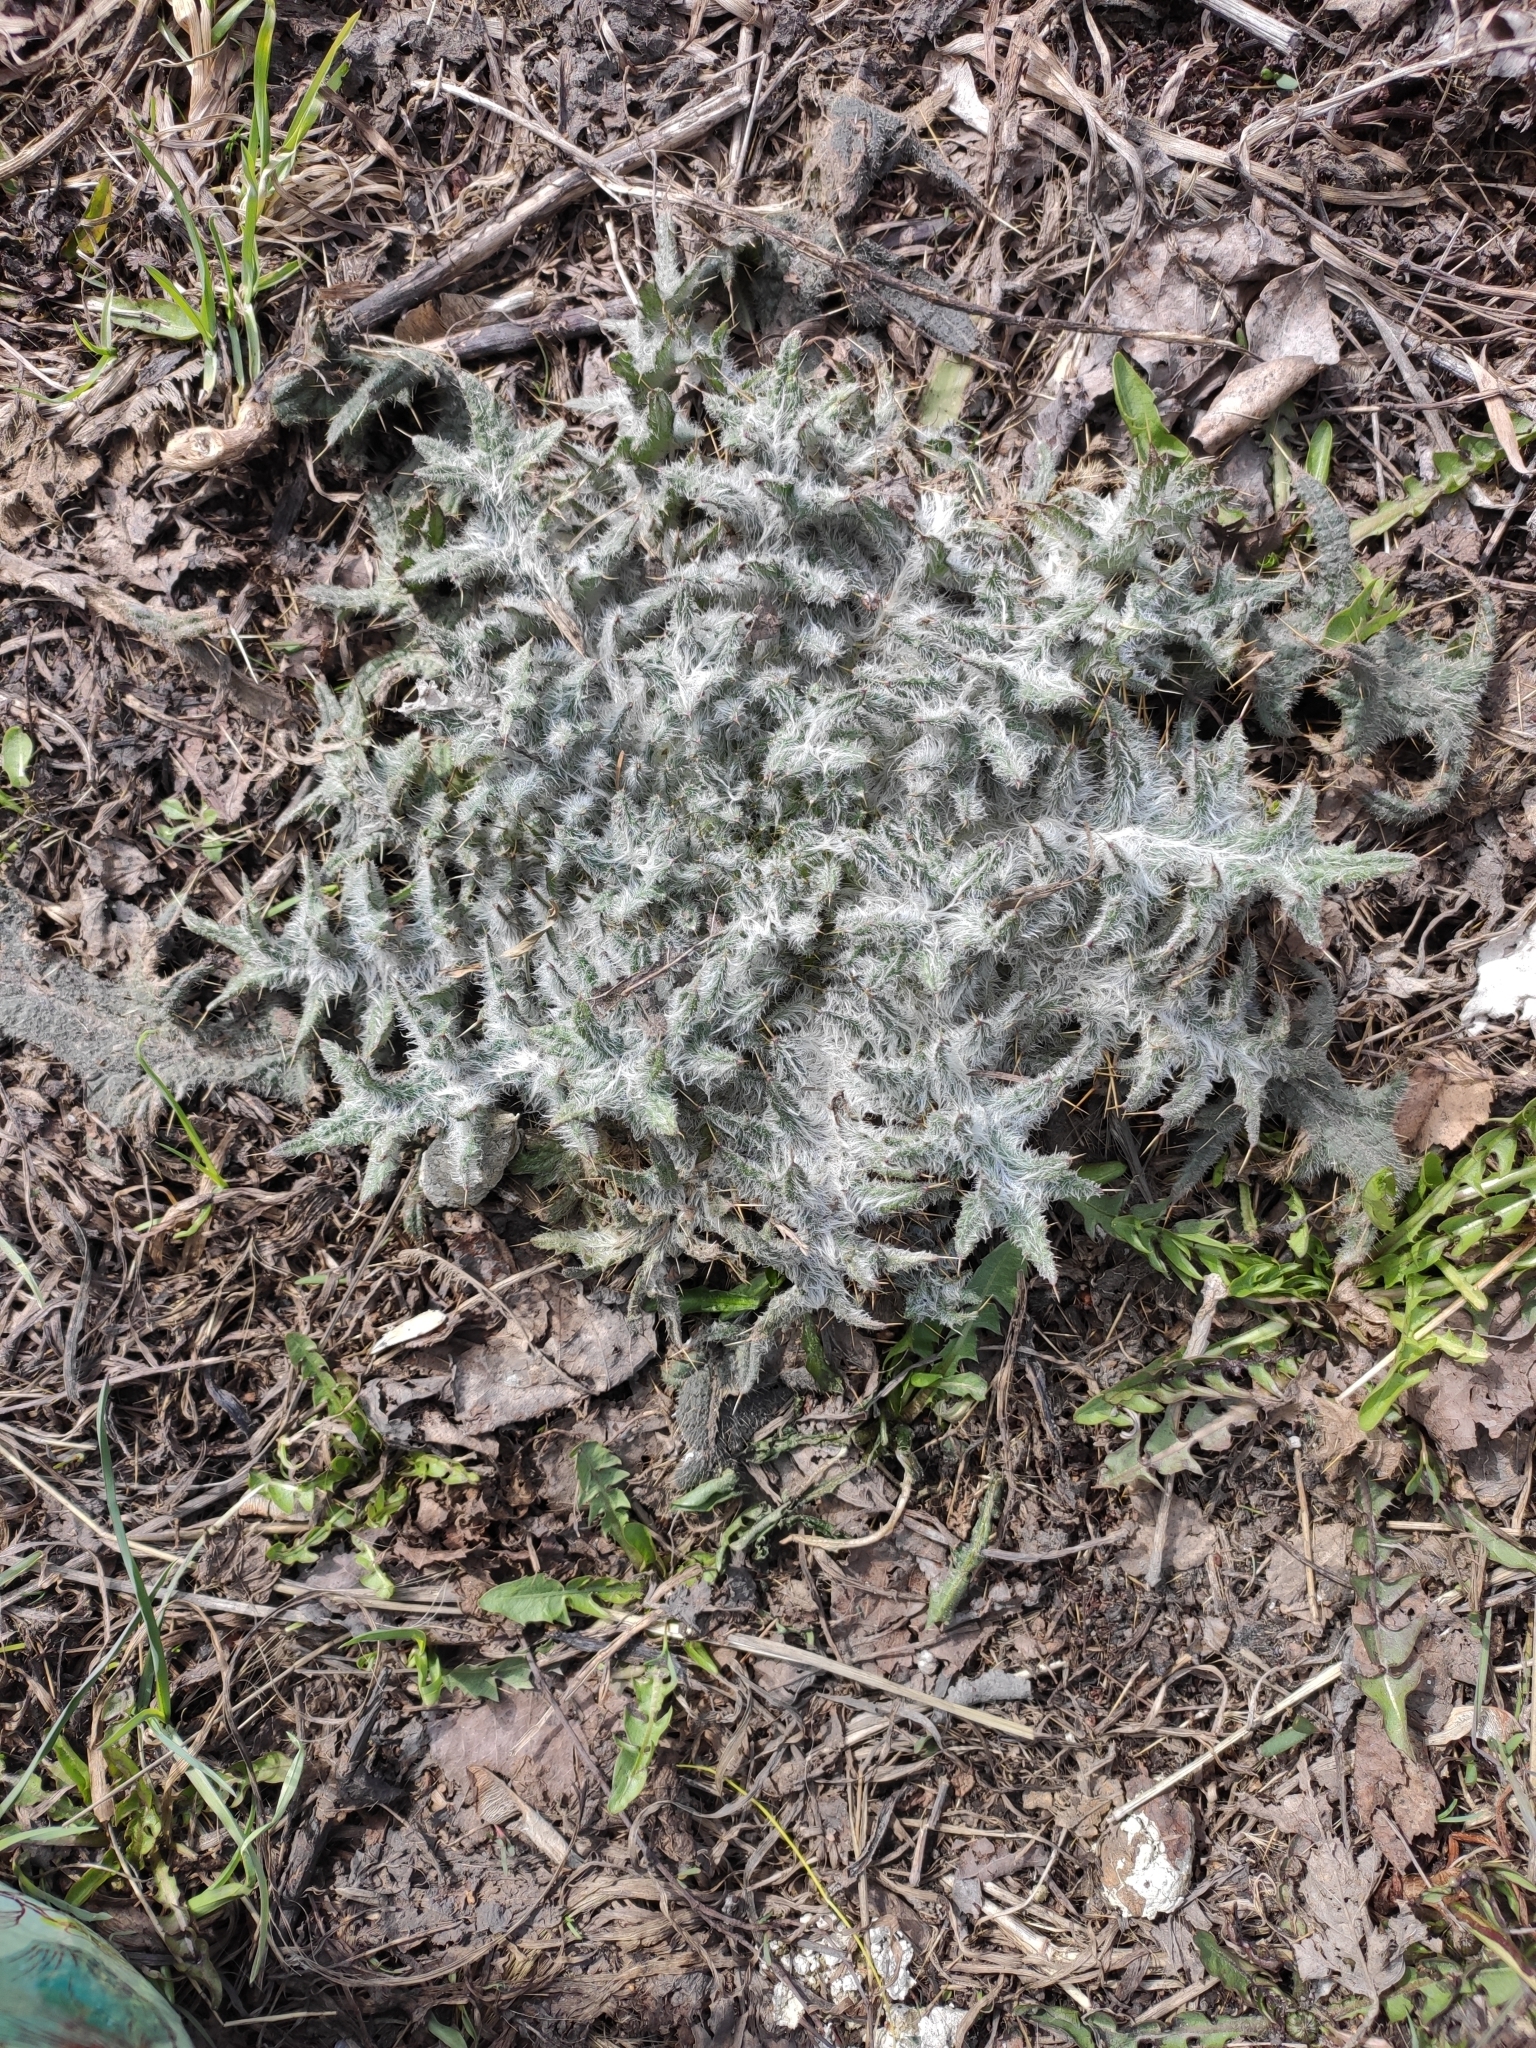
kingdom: Plantae
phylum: Tracheophyta
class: Magnoliopsida
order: Asterales
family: Asteraceae
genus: Cirsium
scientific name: Cirsium vulgare
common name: Bull thistle
